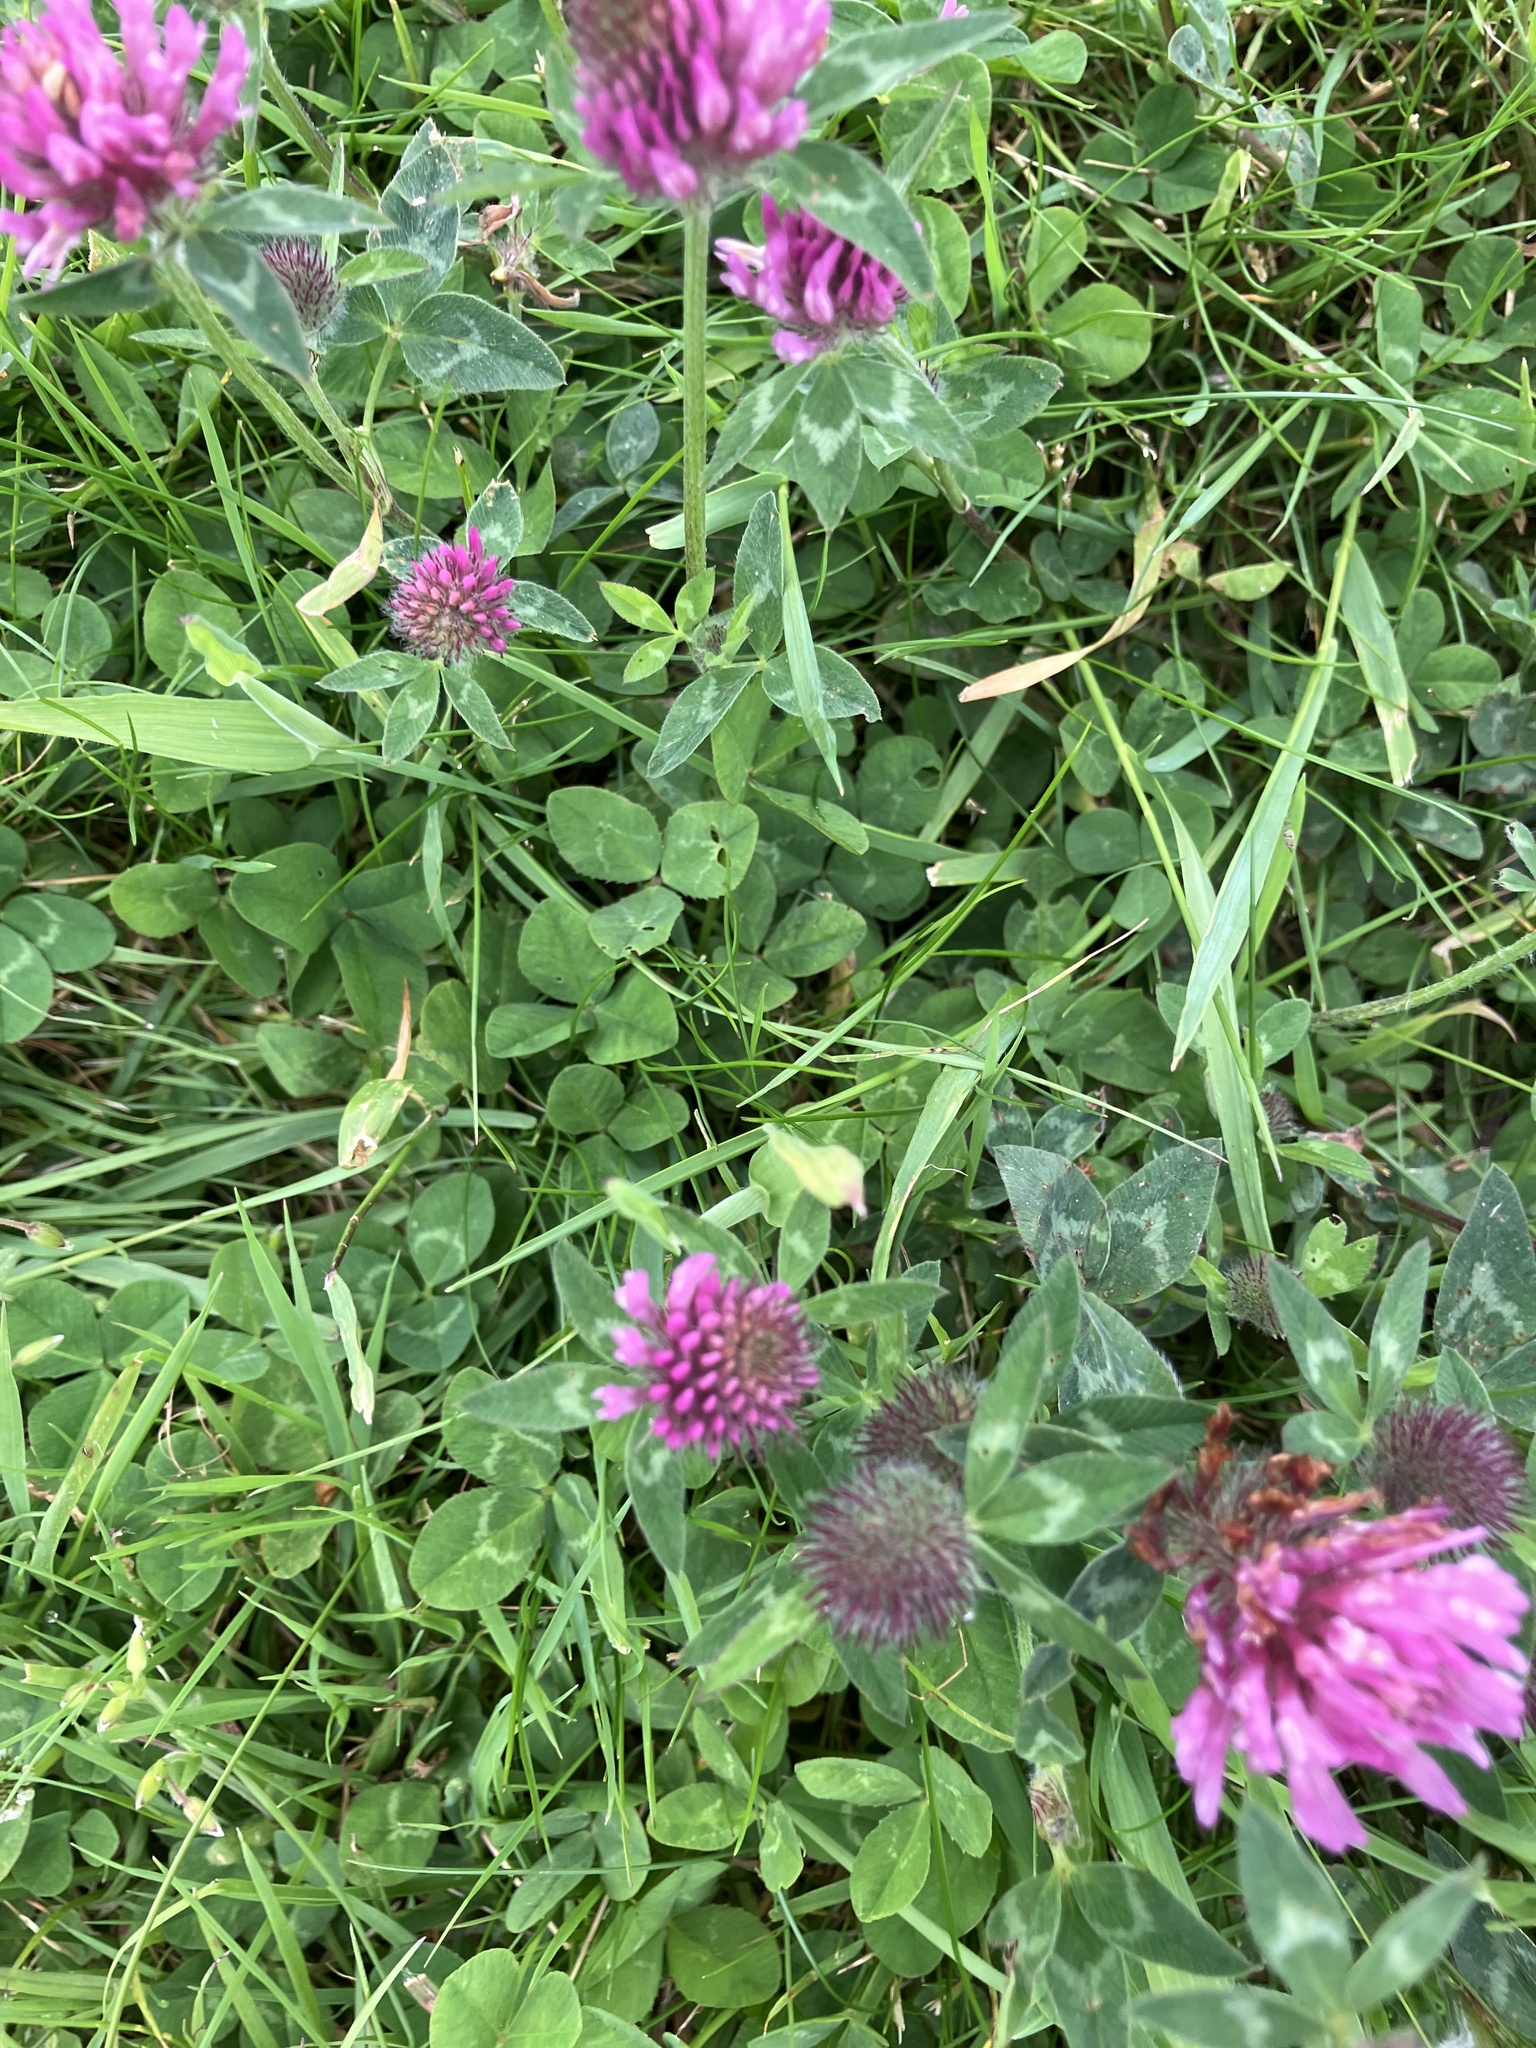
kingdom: Plantae
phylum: Tracheophyta
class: Magnoliopsida
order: Fabales
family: Fabaceae
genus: Trifolium
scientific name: Trifolium pratense
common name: Red clover
